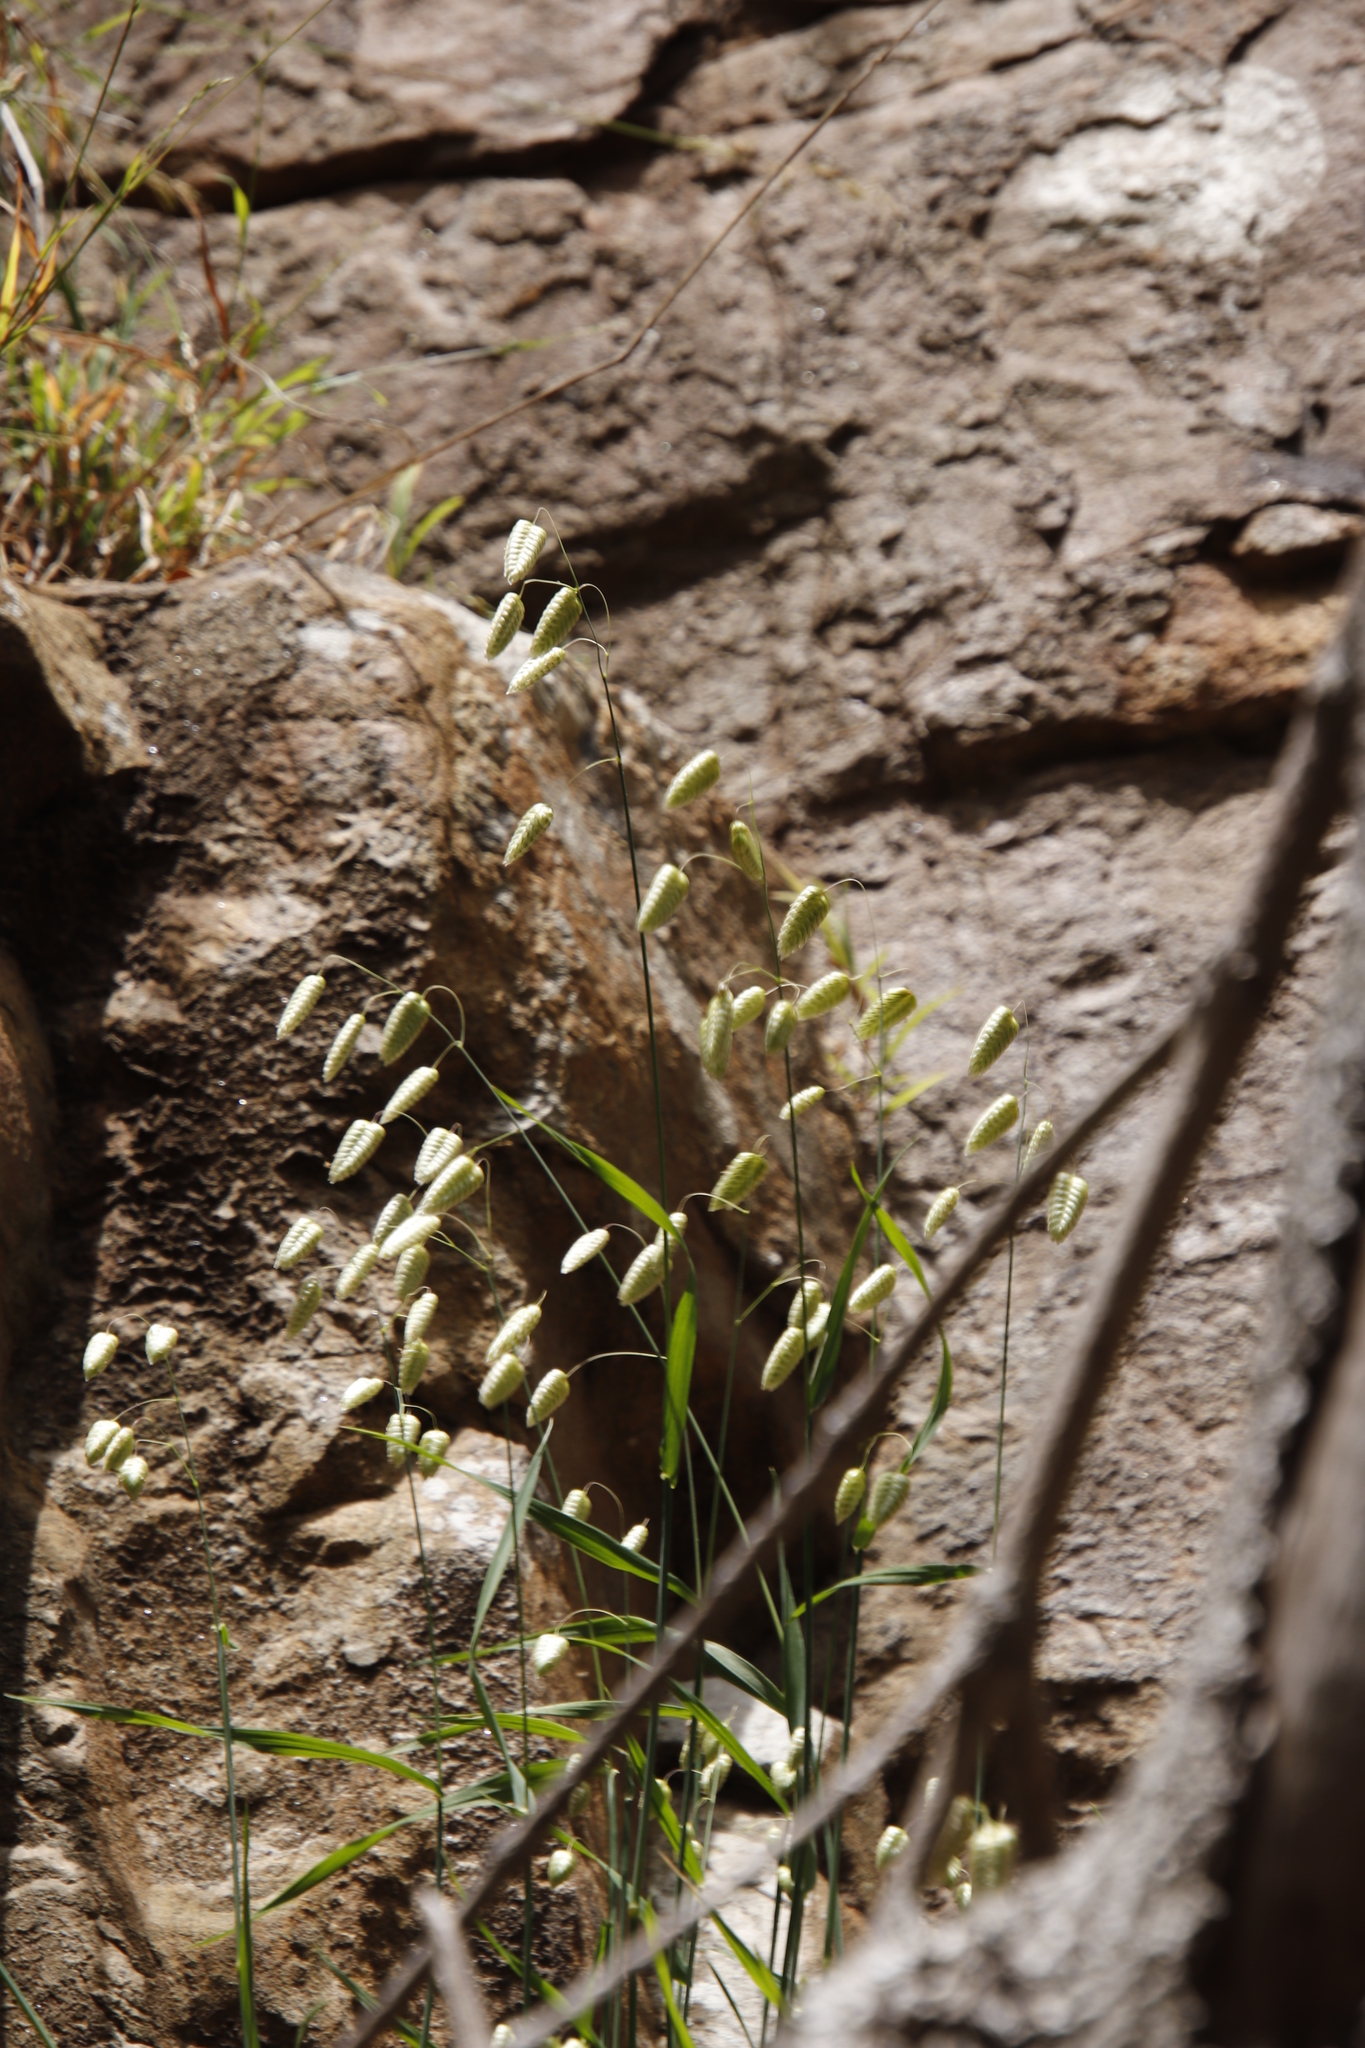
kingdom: Plantae
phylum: Tracheophyta
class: Liliopsida
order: Poales
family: Poaceae
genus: Briza
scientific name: Briza maxima
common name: Big quakinggrass
